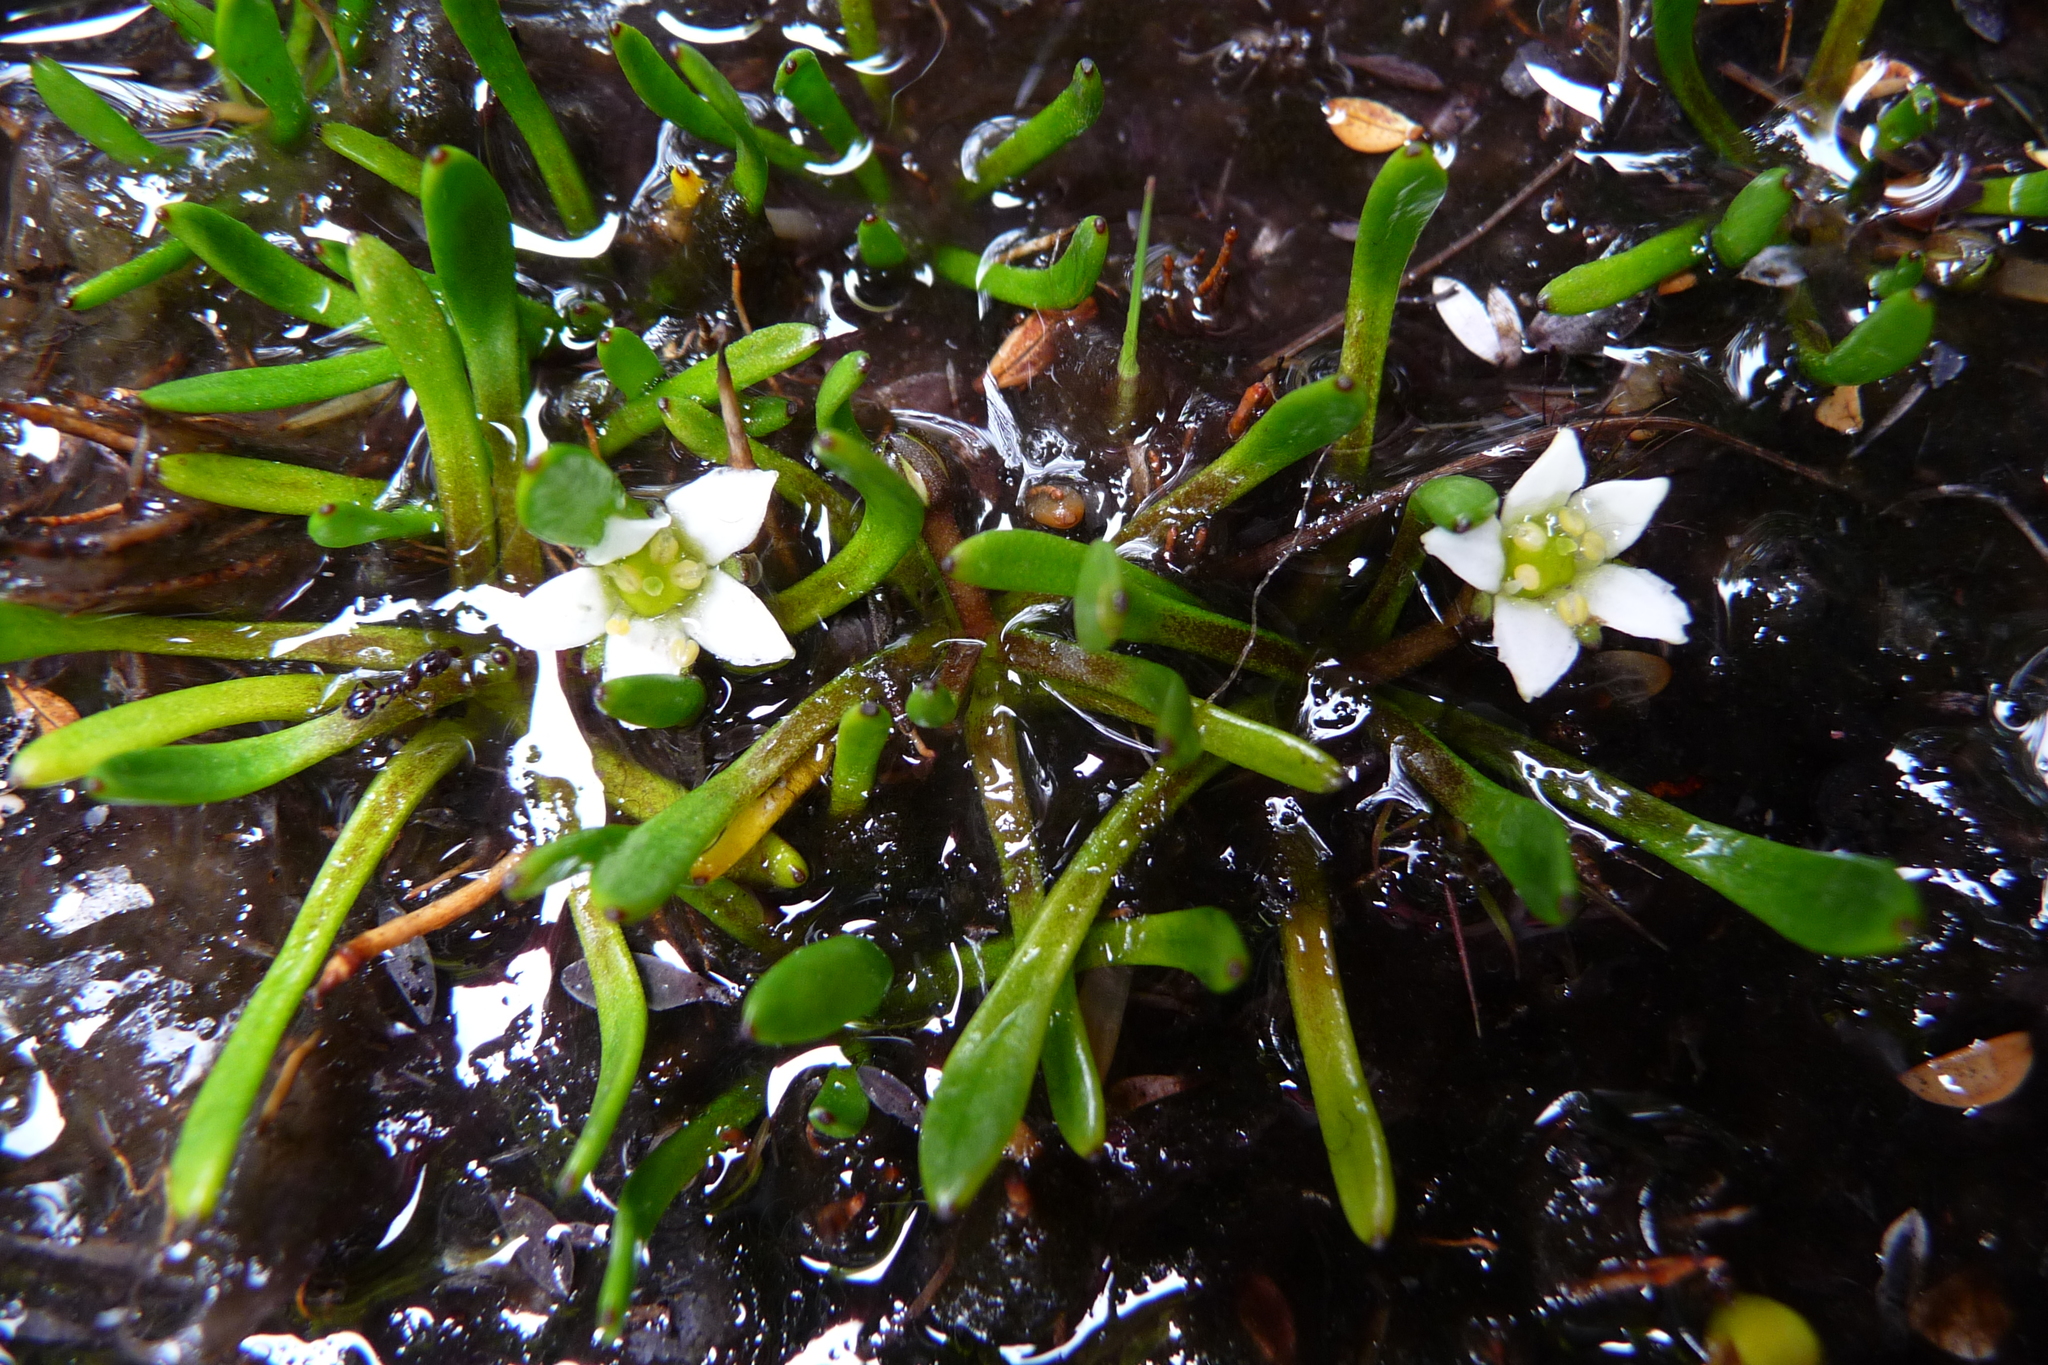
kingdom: Plantae
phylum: Tracheophyta
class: Magnoliopsida
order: Asterales
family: Menyanthaceae
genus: Liparophyllum
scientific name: Liparophyllum gunnii
